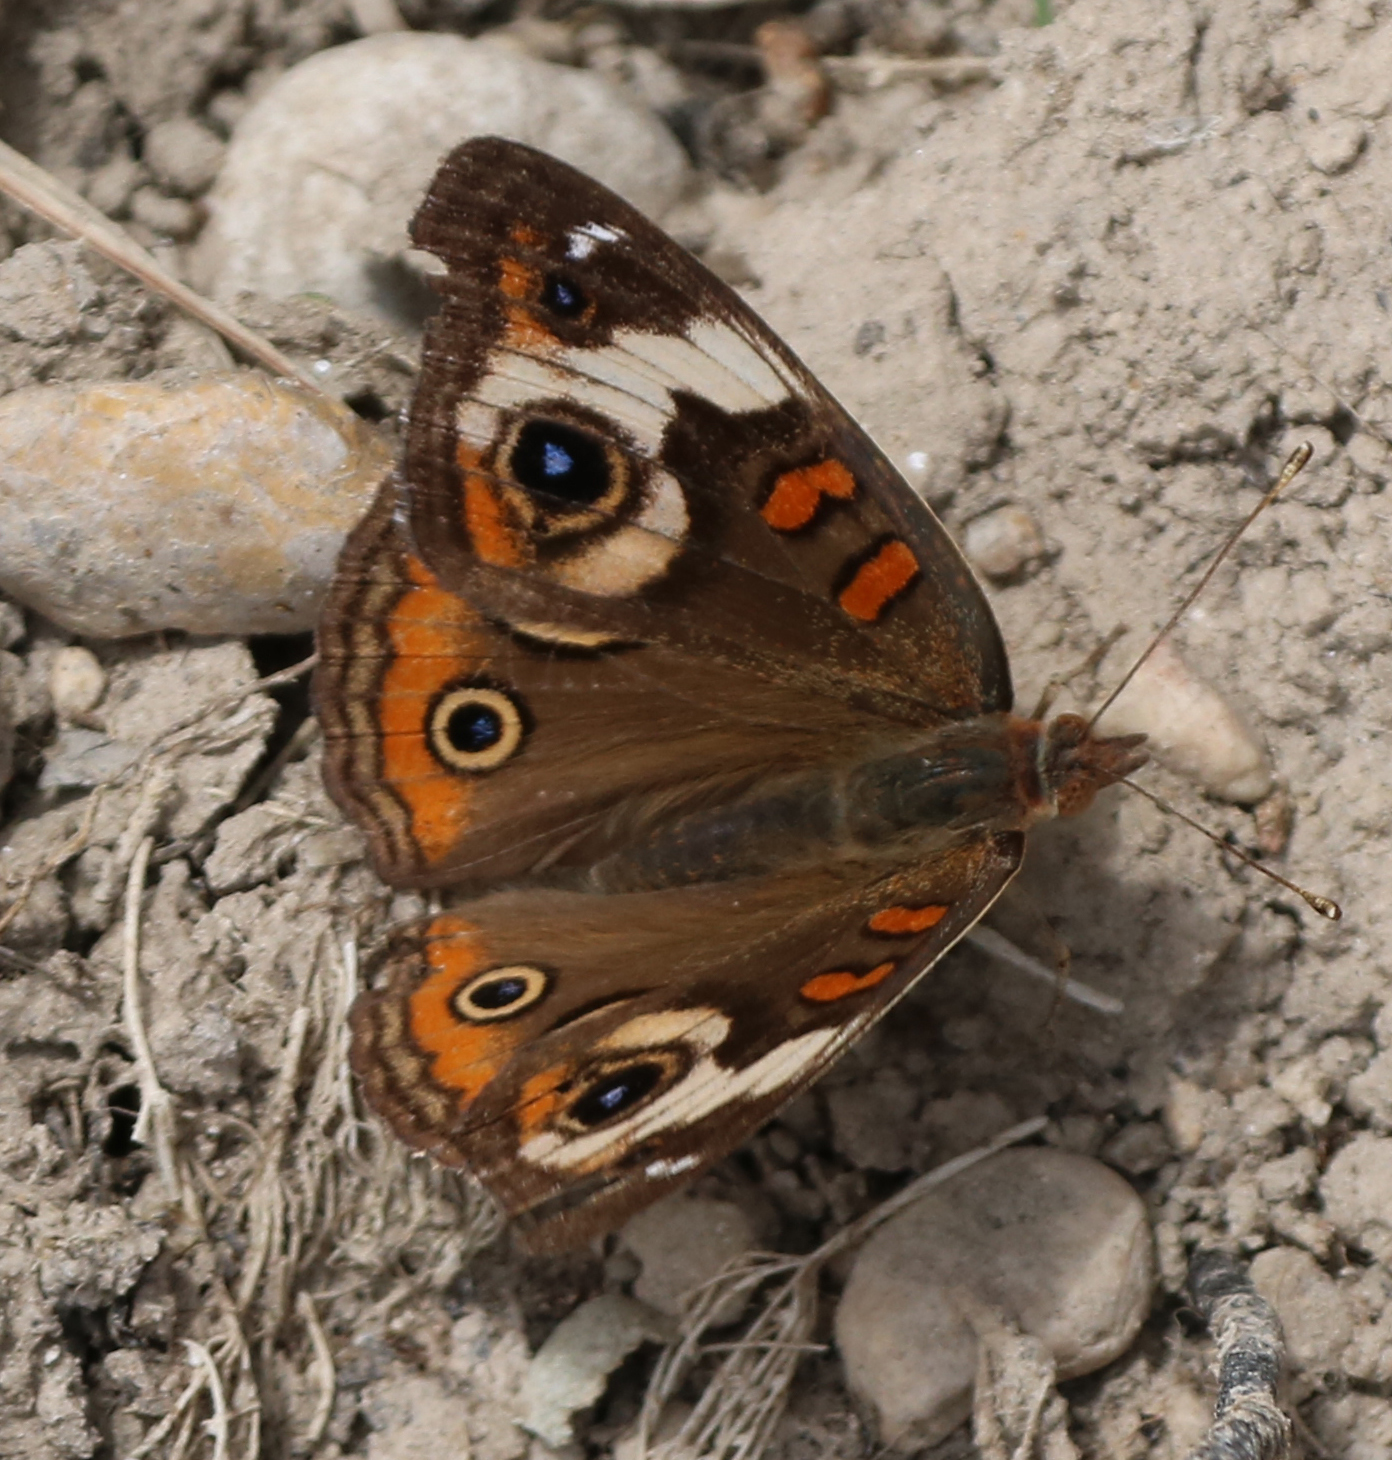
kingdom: Animalia
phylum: Arthropoda
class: Insecta
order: Lepidoptera
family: Nymphalidae
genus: Junonia
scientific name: Junonia coenia
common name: Common buckeye
